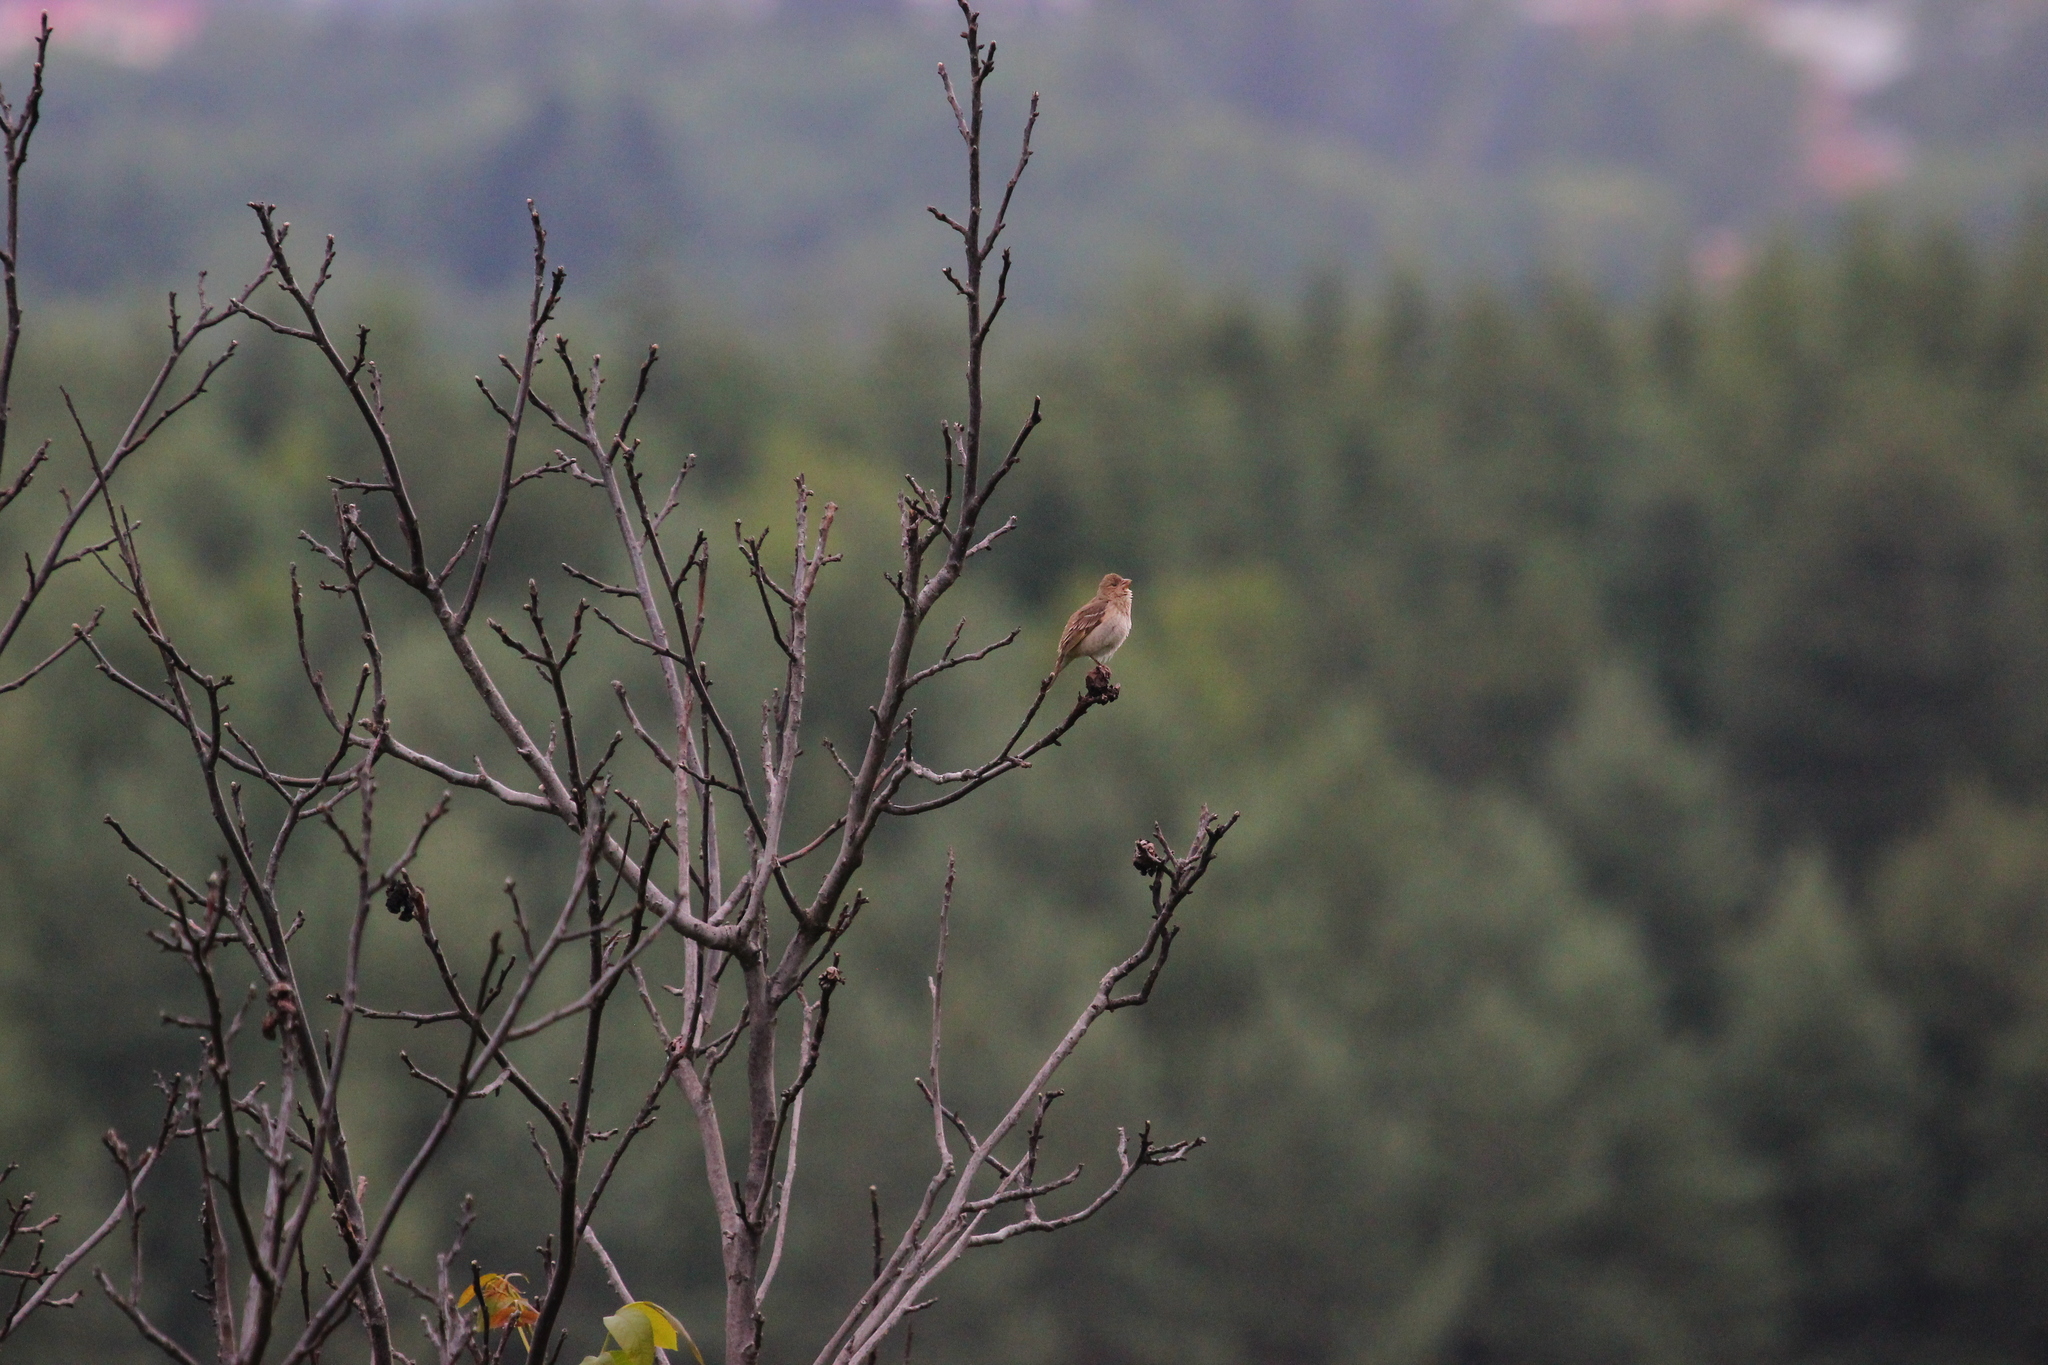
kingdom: Animalia
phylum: Chordata
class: Aves
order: Passeriformes
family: Fringillidae
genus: Carpodacus
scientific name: Carpodacus erythrinus
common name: Common rosefinch
